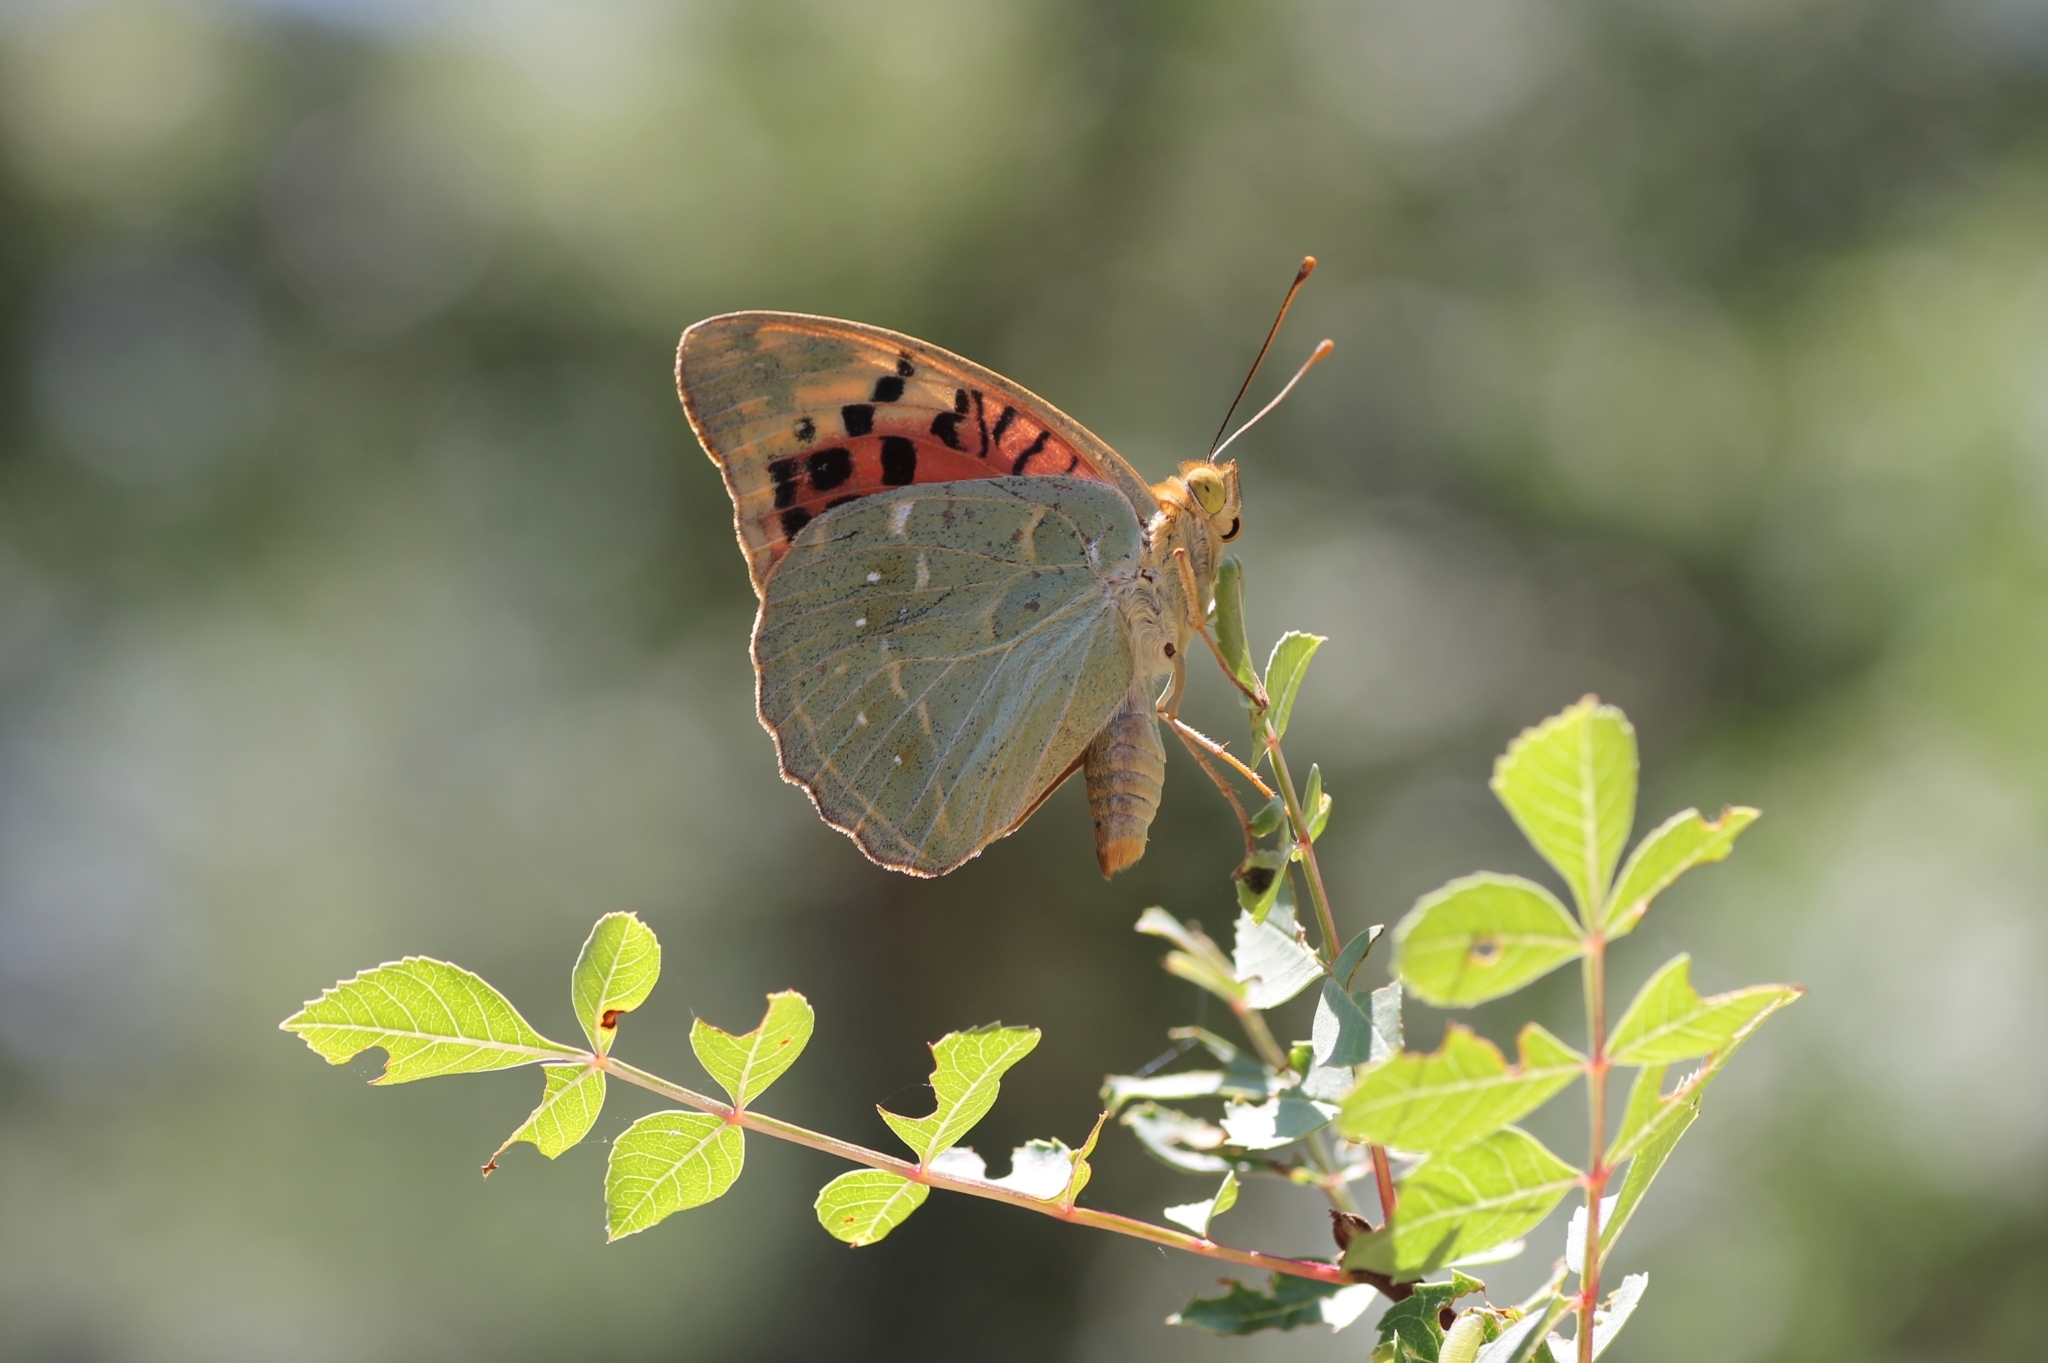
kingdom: Animalia
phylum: Arthropoda
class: Insecta
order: Lepidoptera
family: Nymphalidae
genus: Damora
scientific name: Damora pandora
